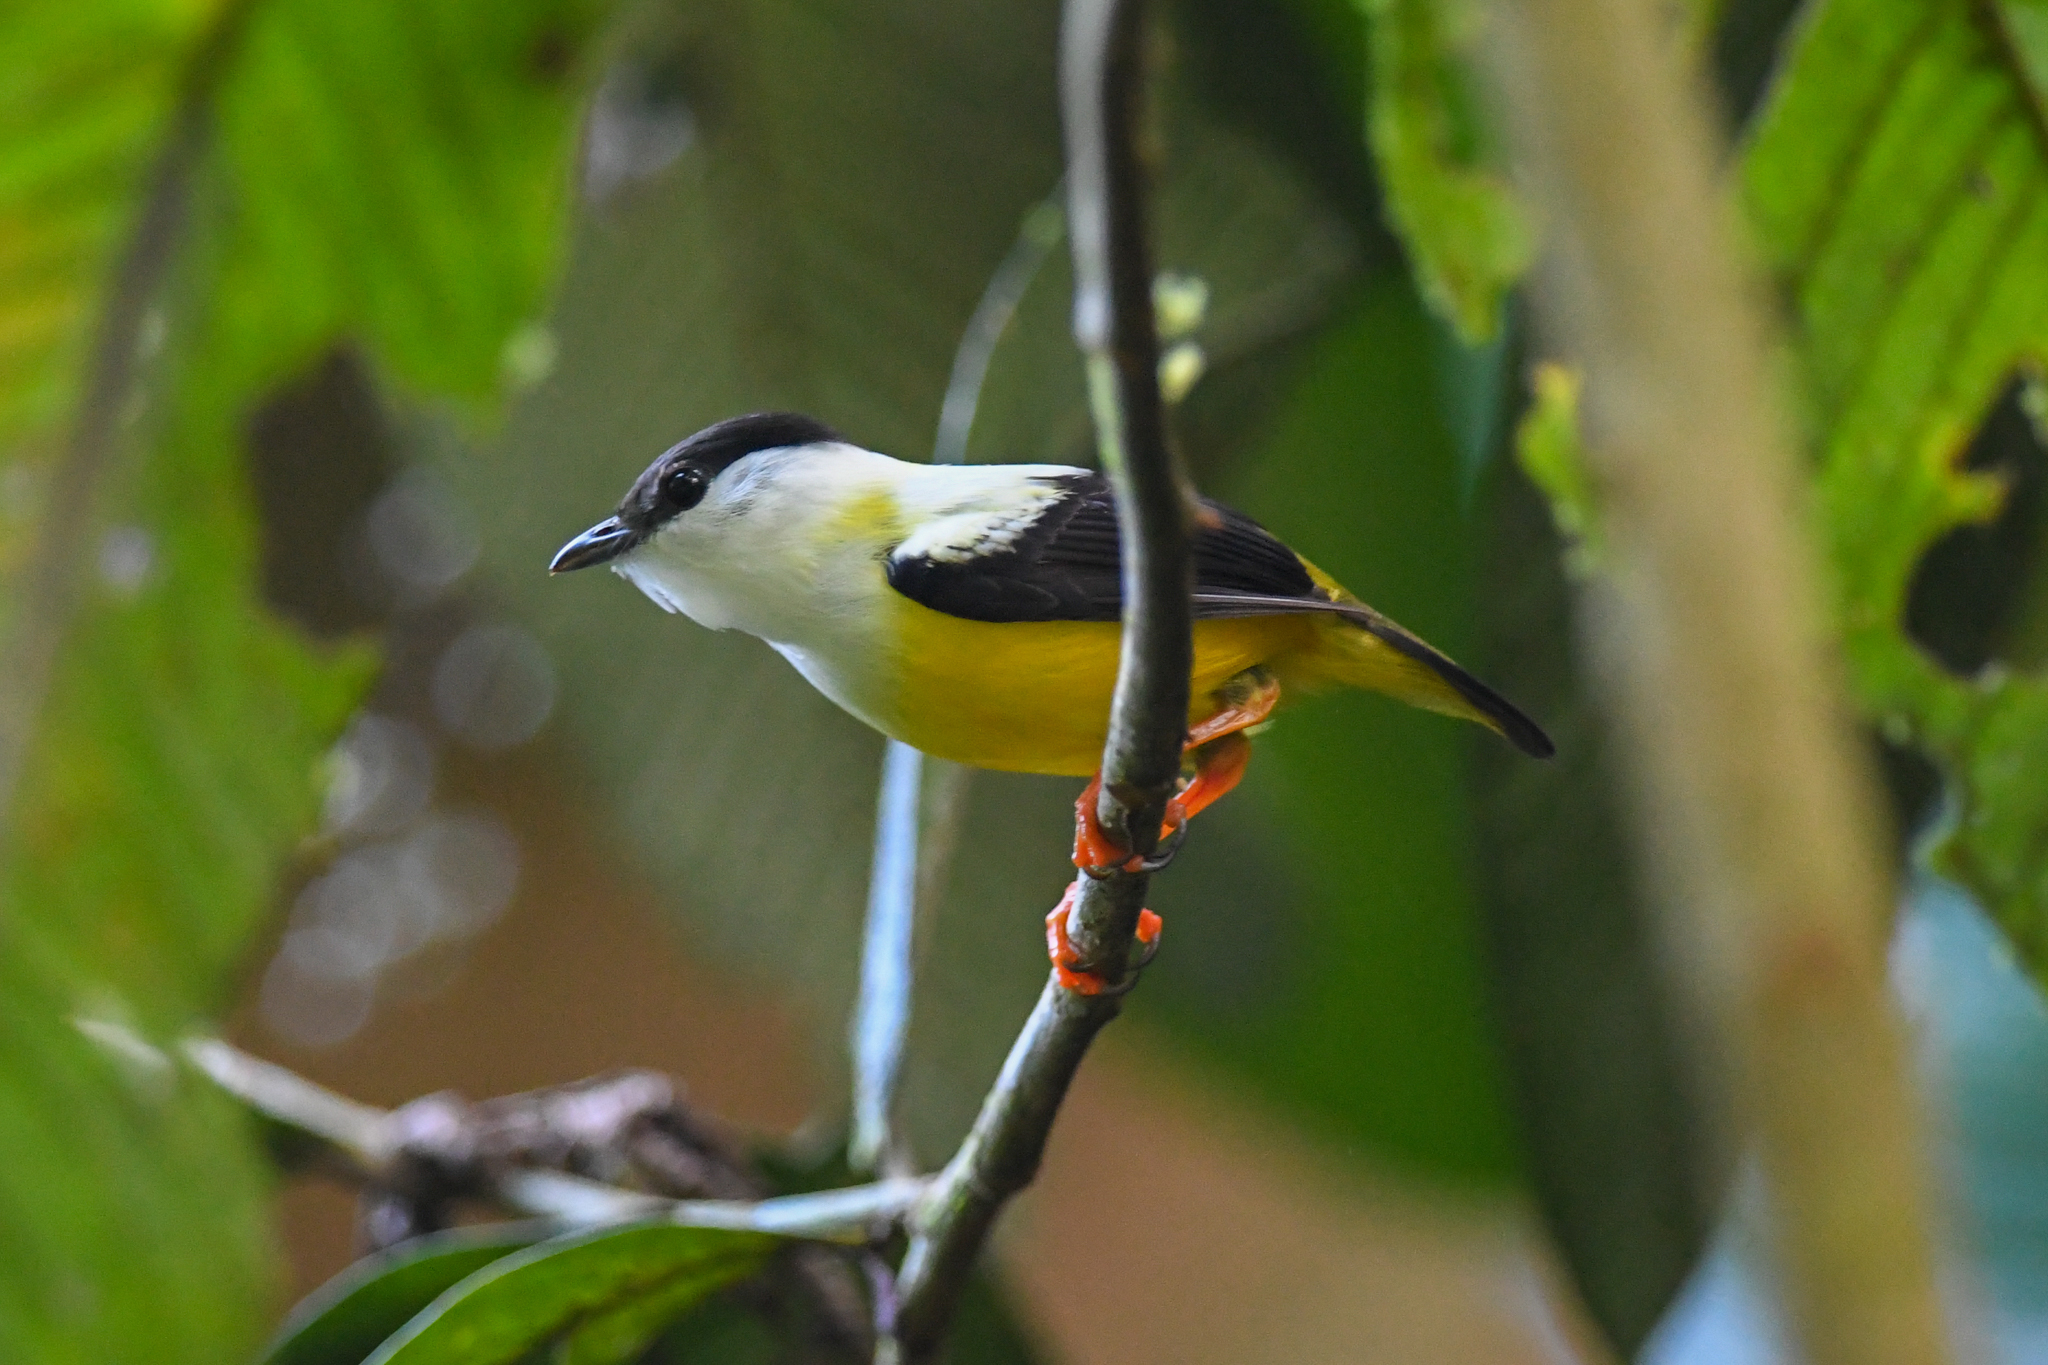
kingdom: Animalia
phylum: Chordata
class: Aves
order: Passeriformes
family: Pipridae
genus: Manacus
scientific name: Manacus candei
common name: White-collared manakin
